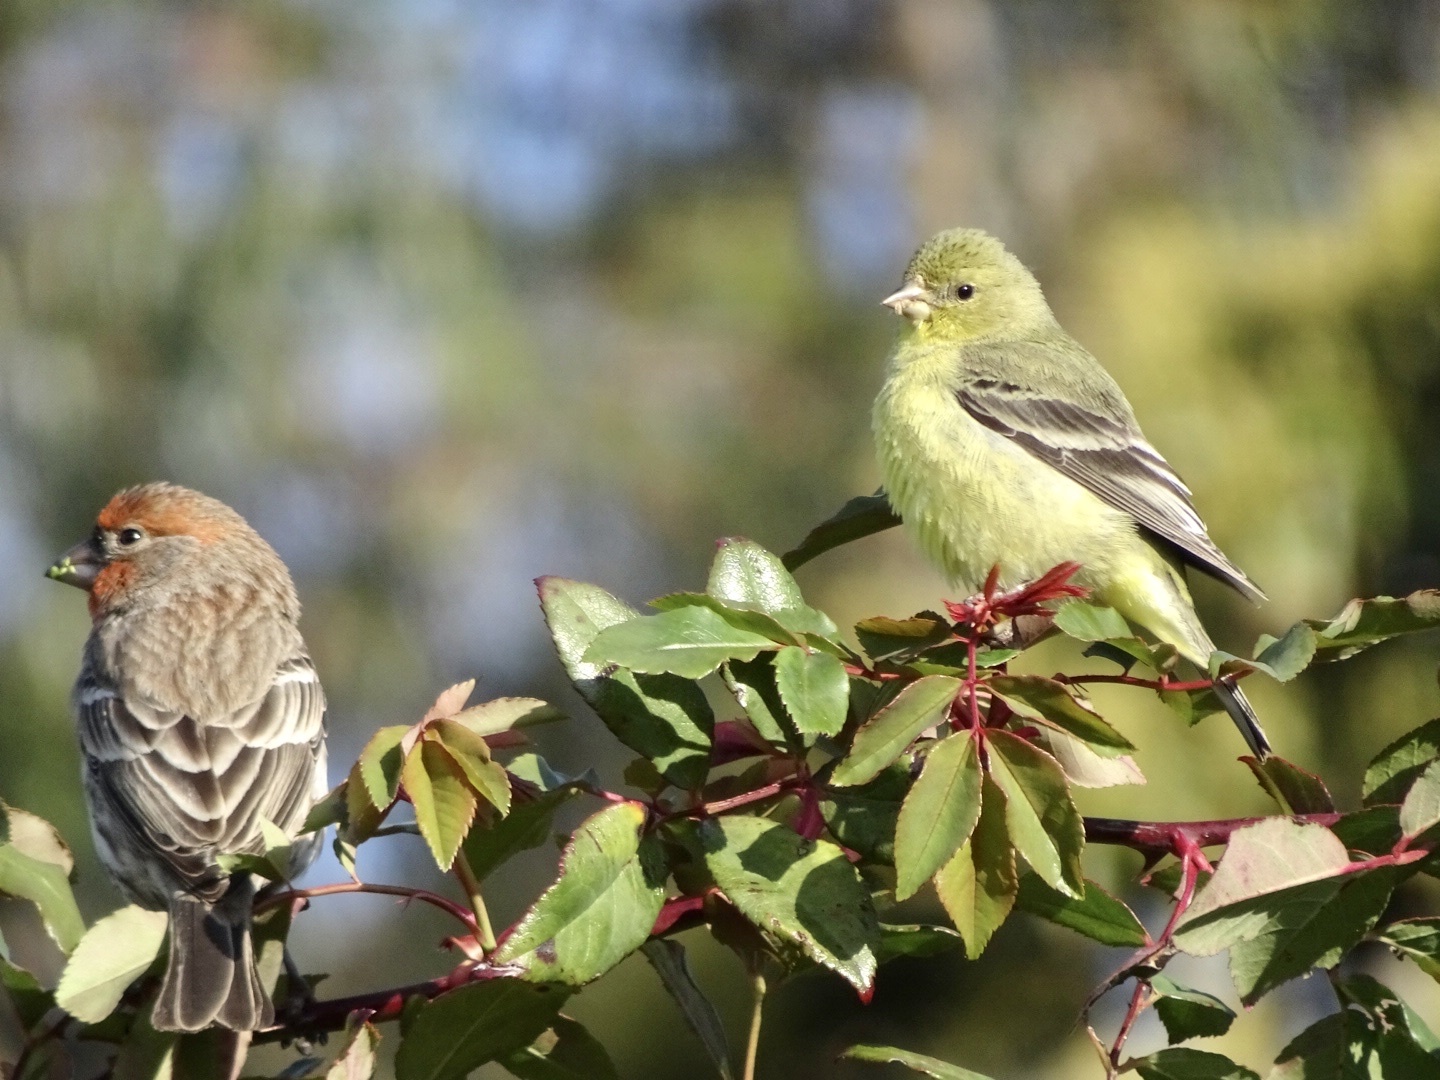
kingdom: Animalia
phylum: Chordata
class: Aves
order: Passeriformes
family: Fringillidae
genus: Haemorhous
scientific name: Haemorhous mexicanus
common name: House finch
